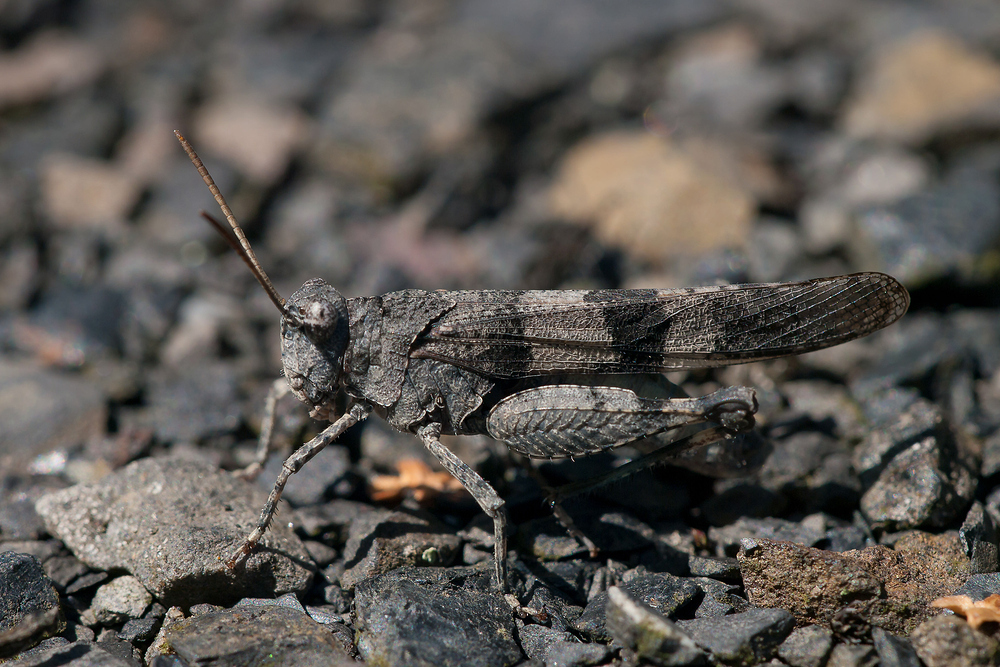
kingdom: Animalia
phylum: Arthropoda
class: Insecta
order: Orthoptera
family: Acrididae
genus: Oedipoda
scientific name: Oedipoda caerulescens
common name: Blue-winged grasshopper
